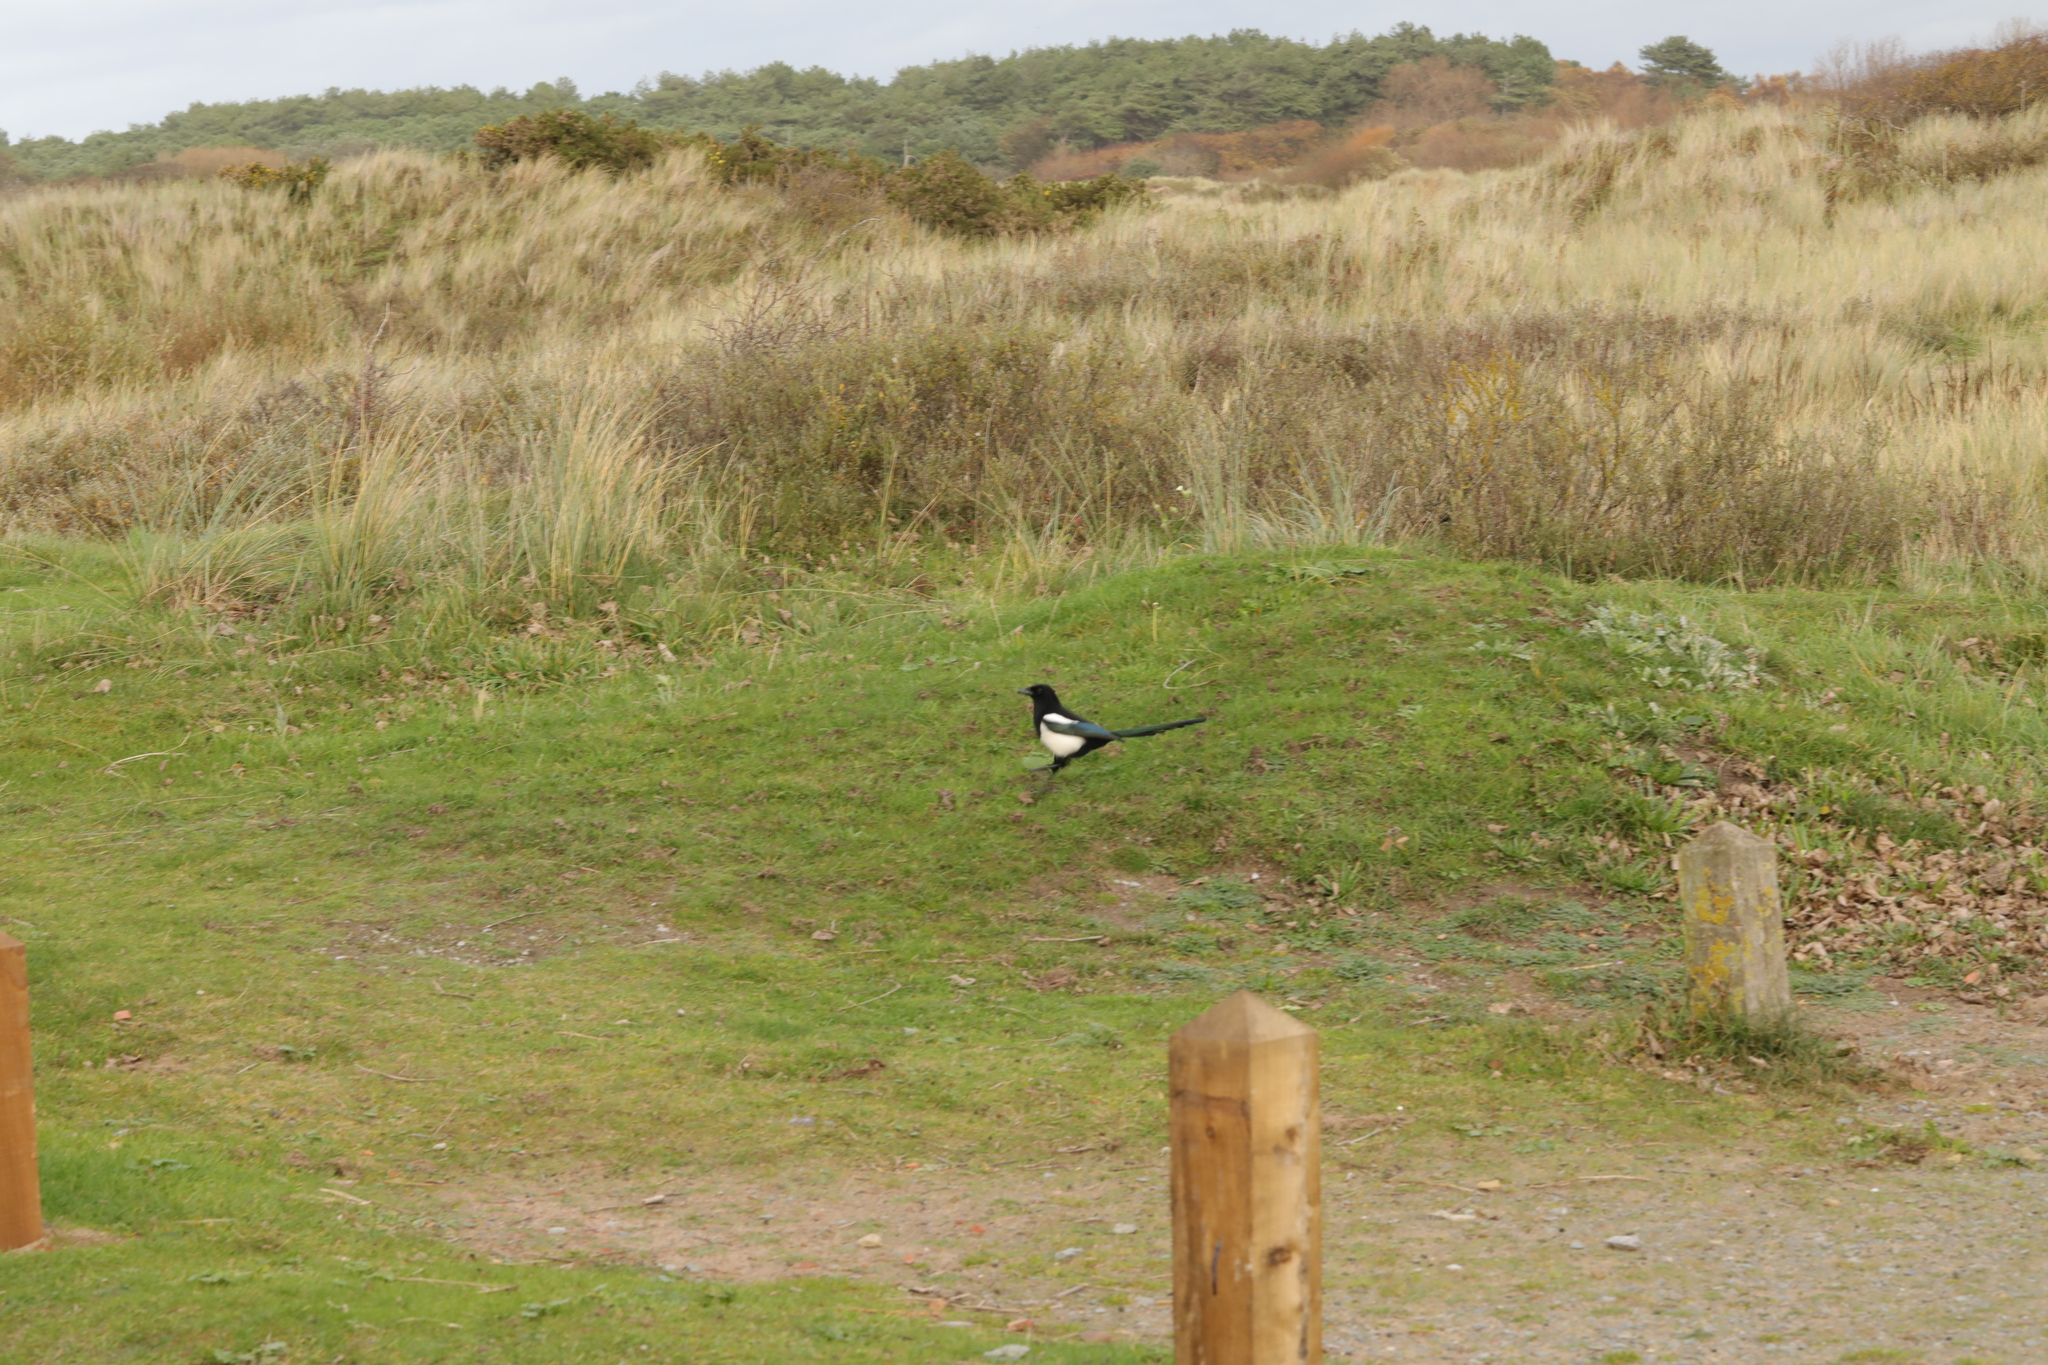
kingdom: Animalia
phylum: Chordata
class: Aves
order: Passeriformes
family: Corvidae
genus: Pica
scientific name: Pica pica
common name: Eurasian magpie
